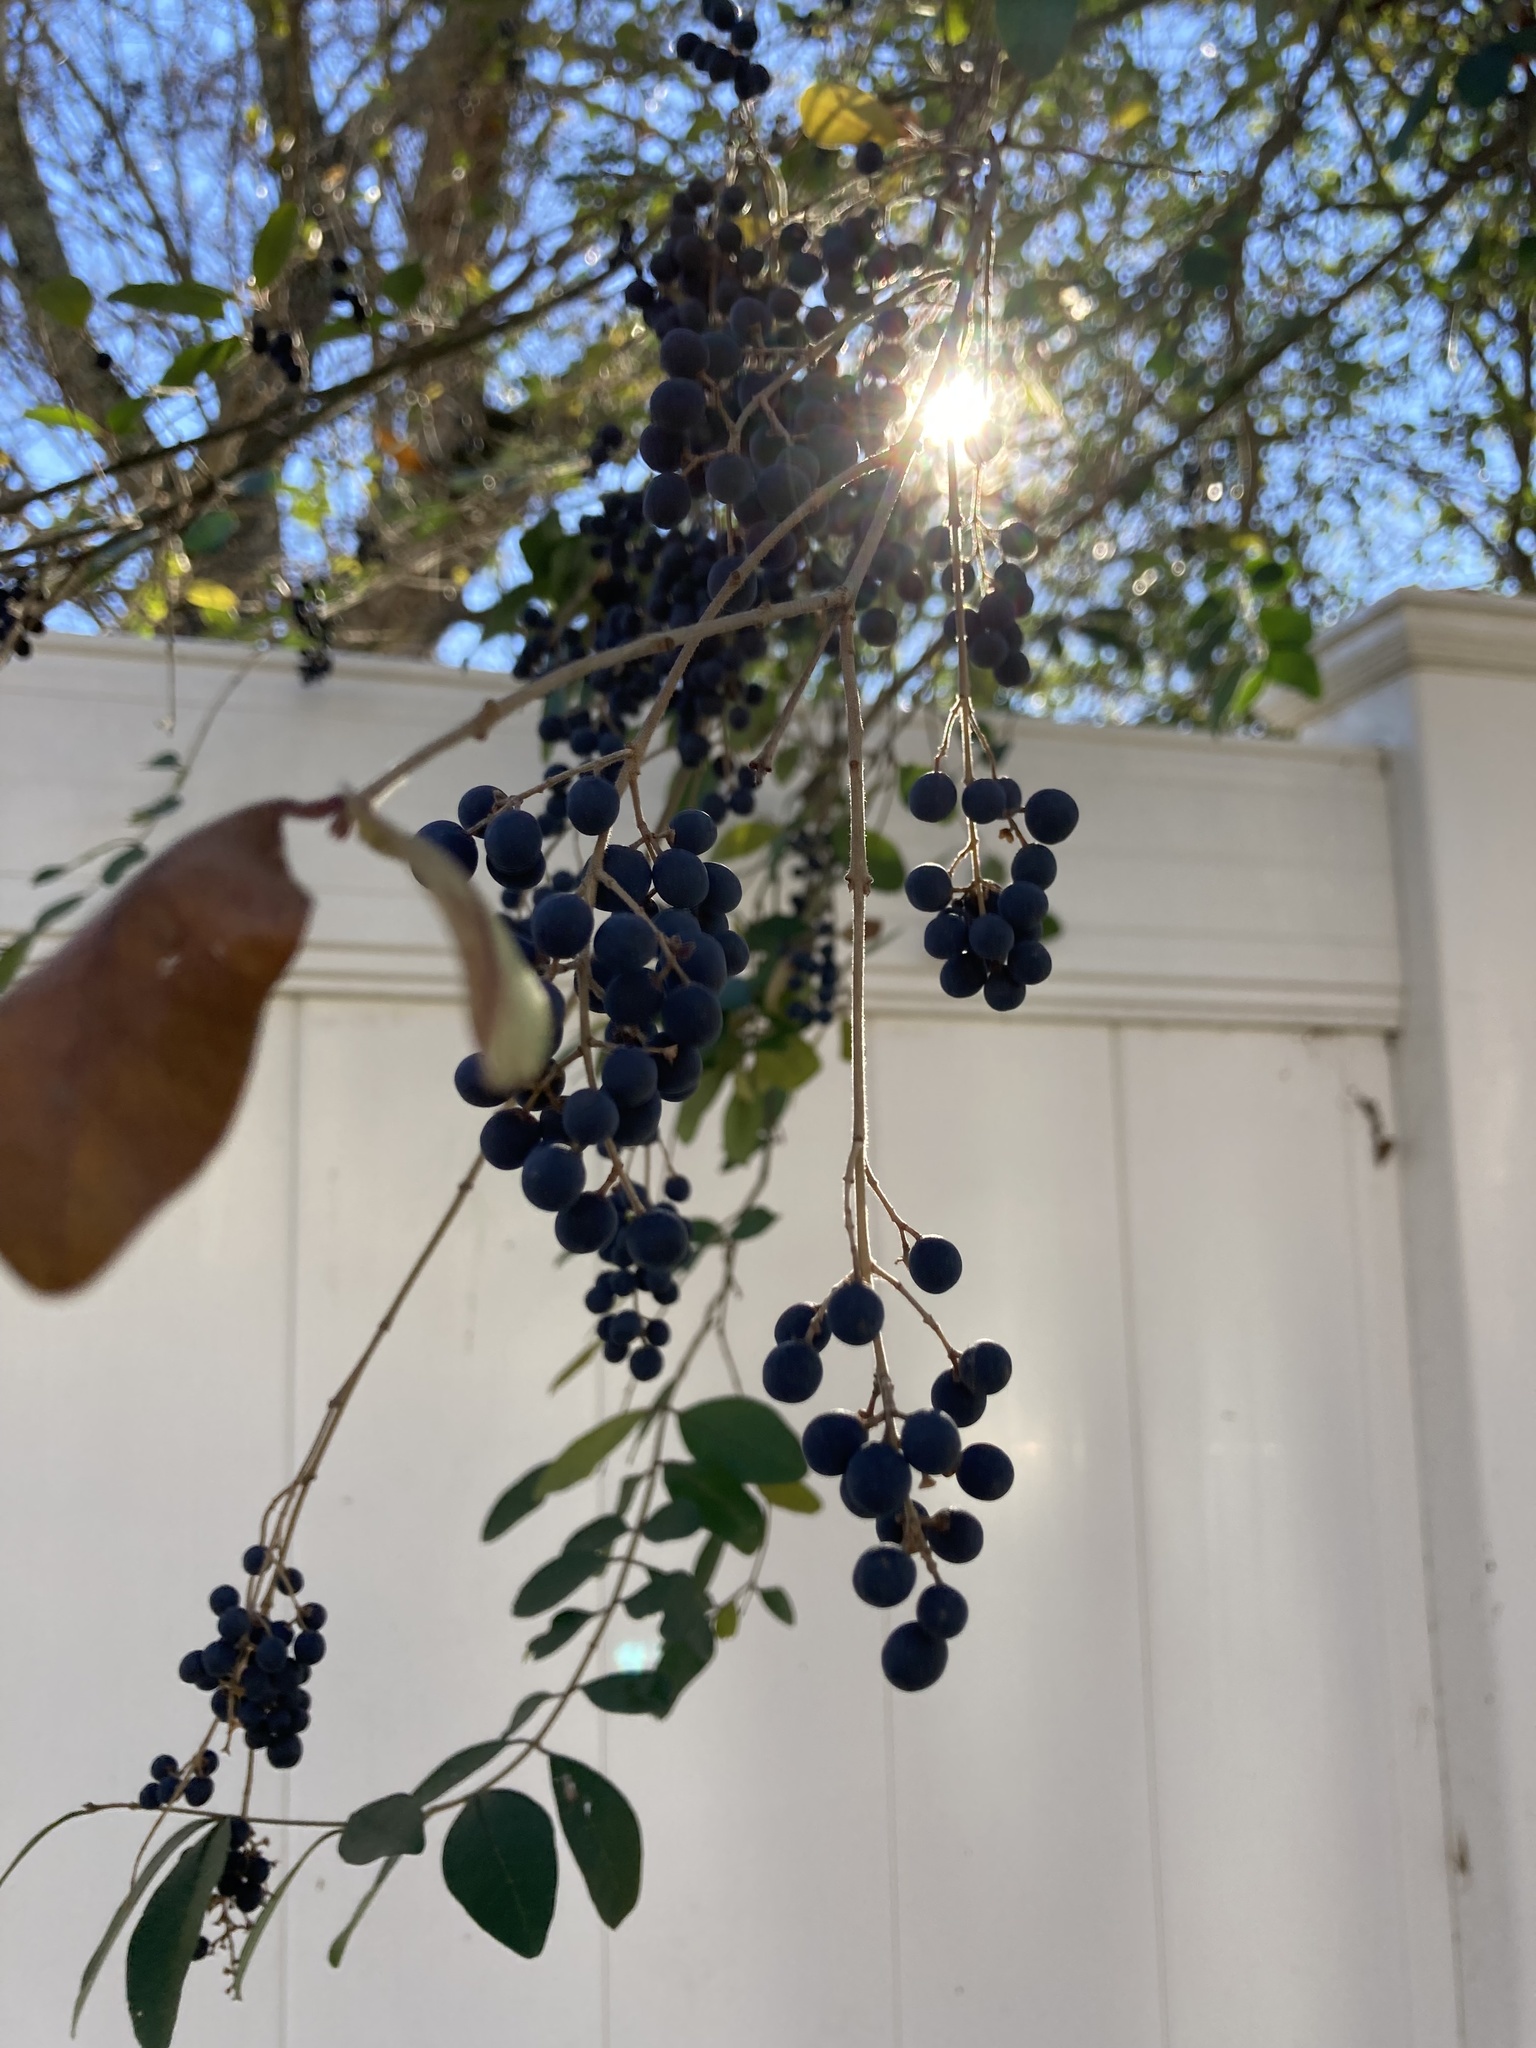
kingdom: Plantae
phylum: Tracheophyta
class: Magnoliopsida
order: Lamiales
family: Oleaceae
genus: Ligustrum
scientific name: Ligustrum sinense
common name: Chinese privet
